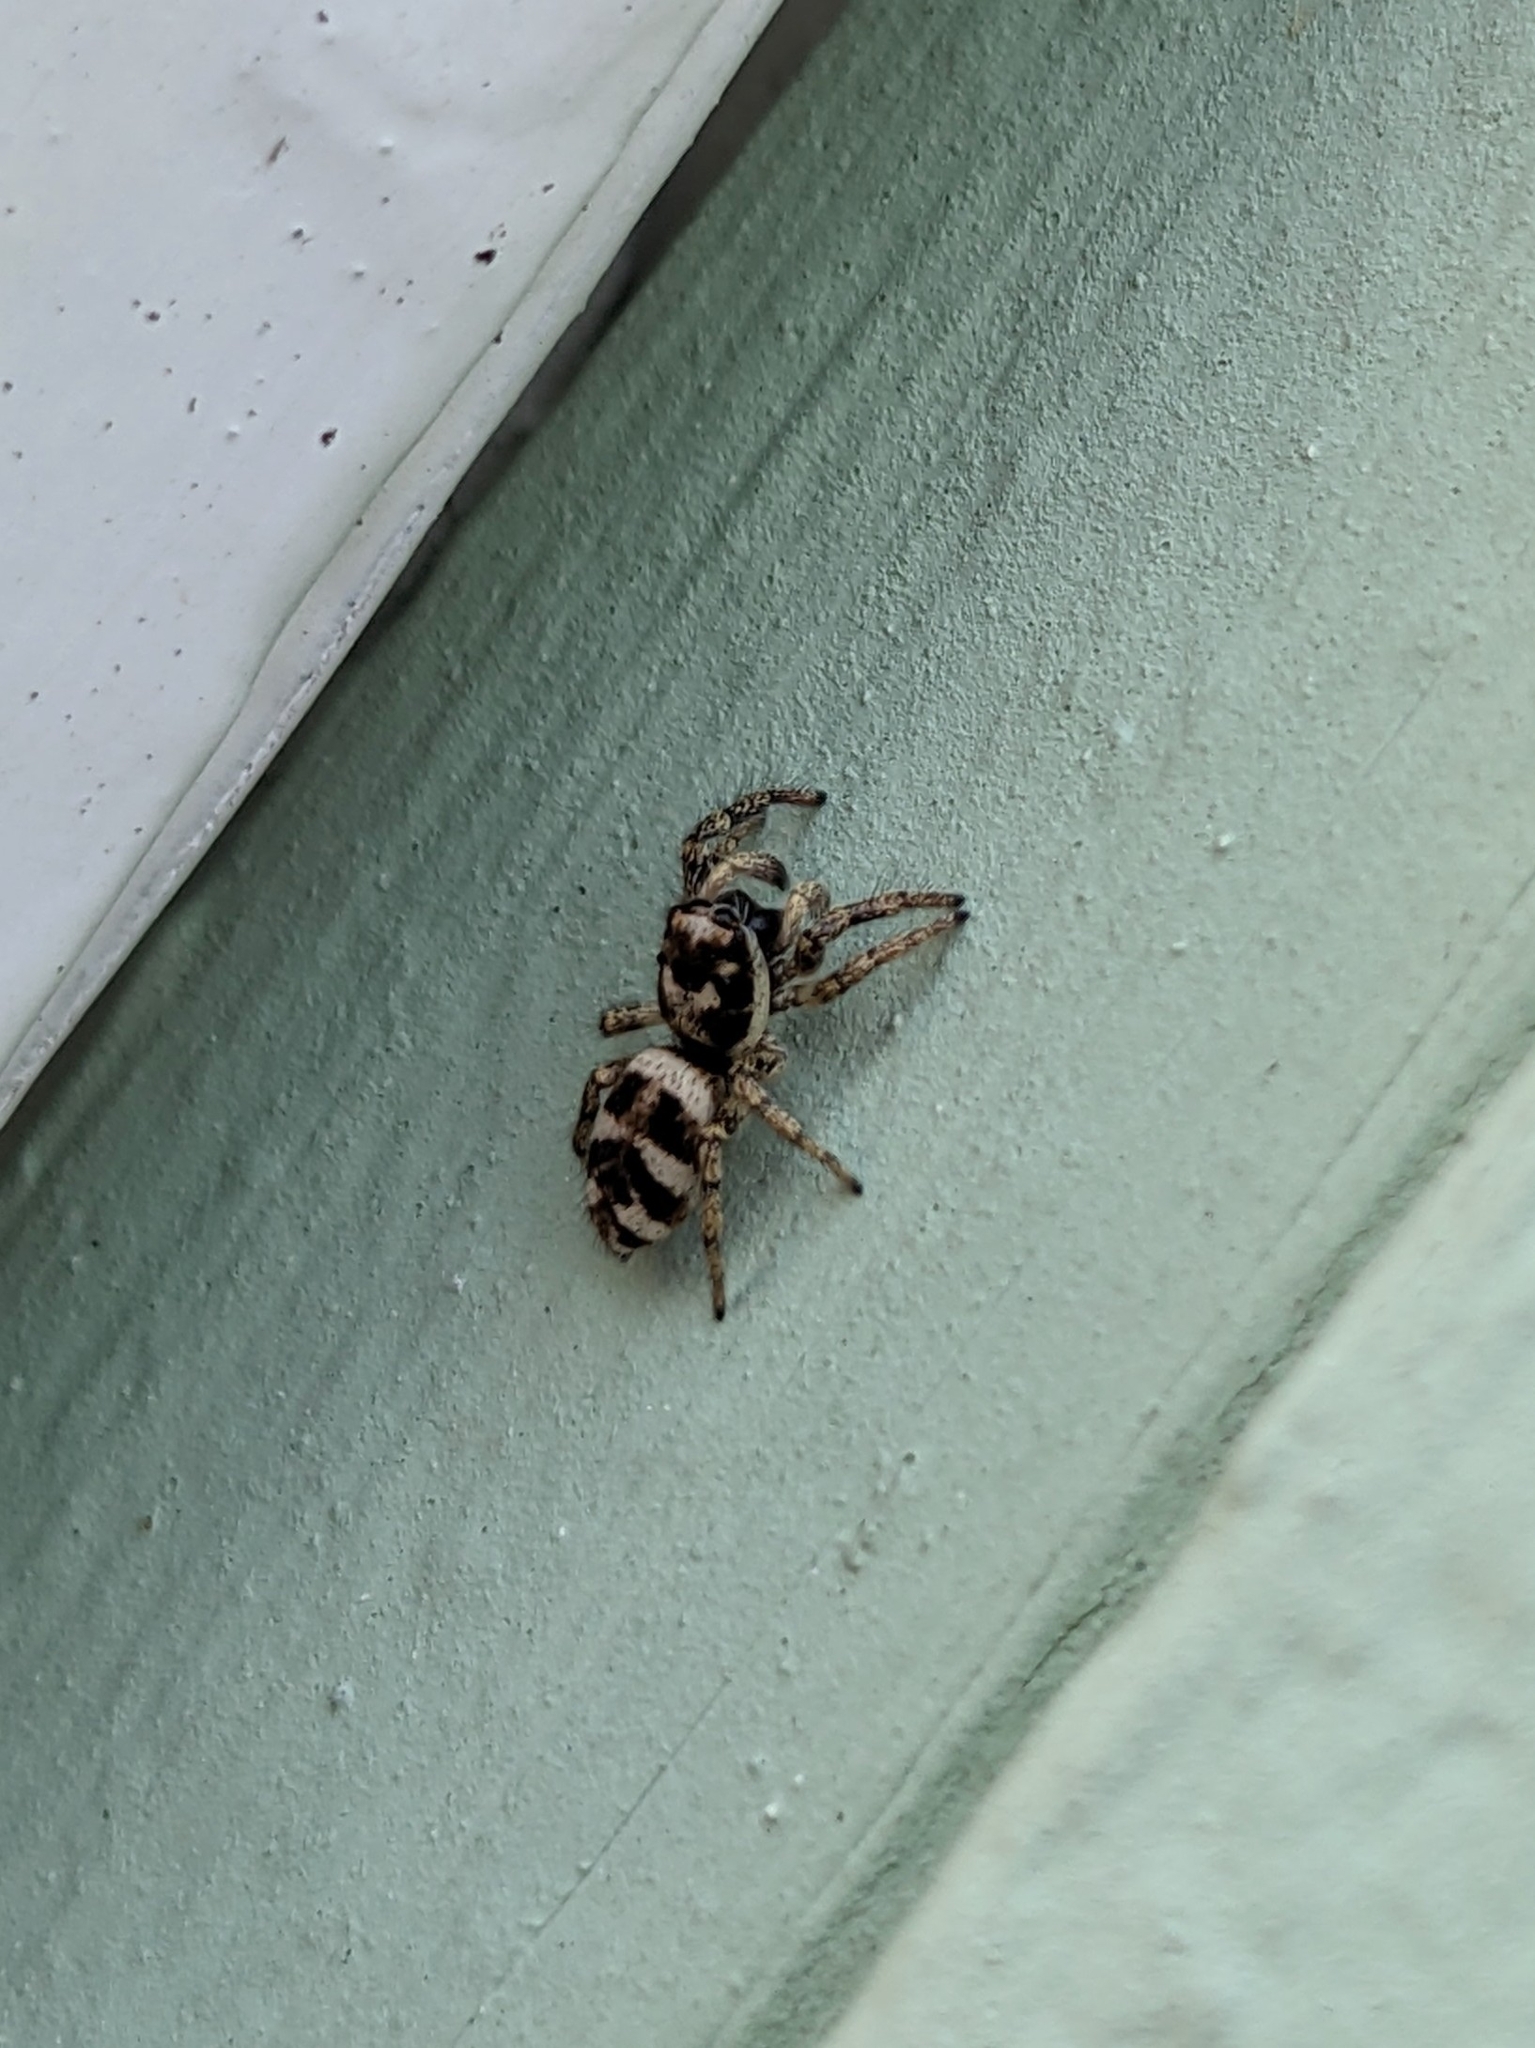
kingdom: Animalia
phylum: Arthropoda
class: Arachnida
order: Araneae
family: Salticidae
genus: Salticus
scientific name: Salticus scenicus
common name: Zebra jumper
